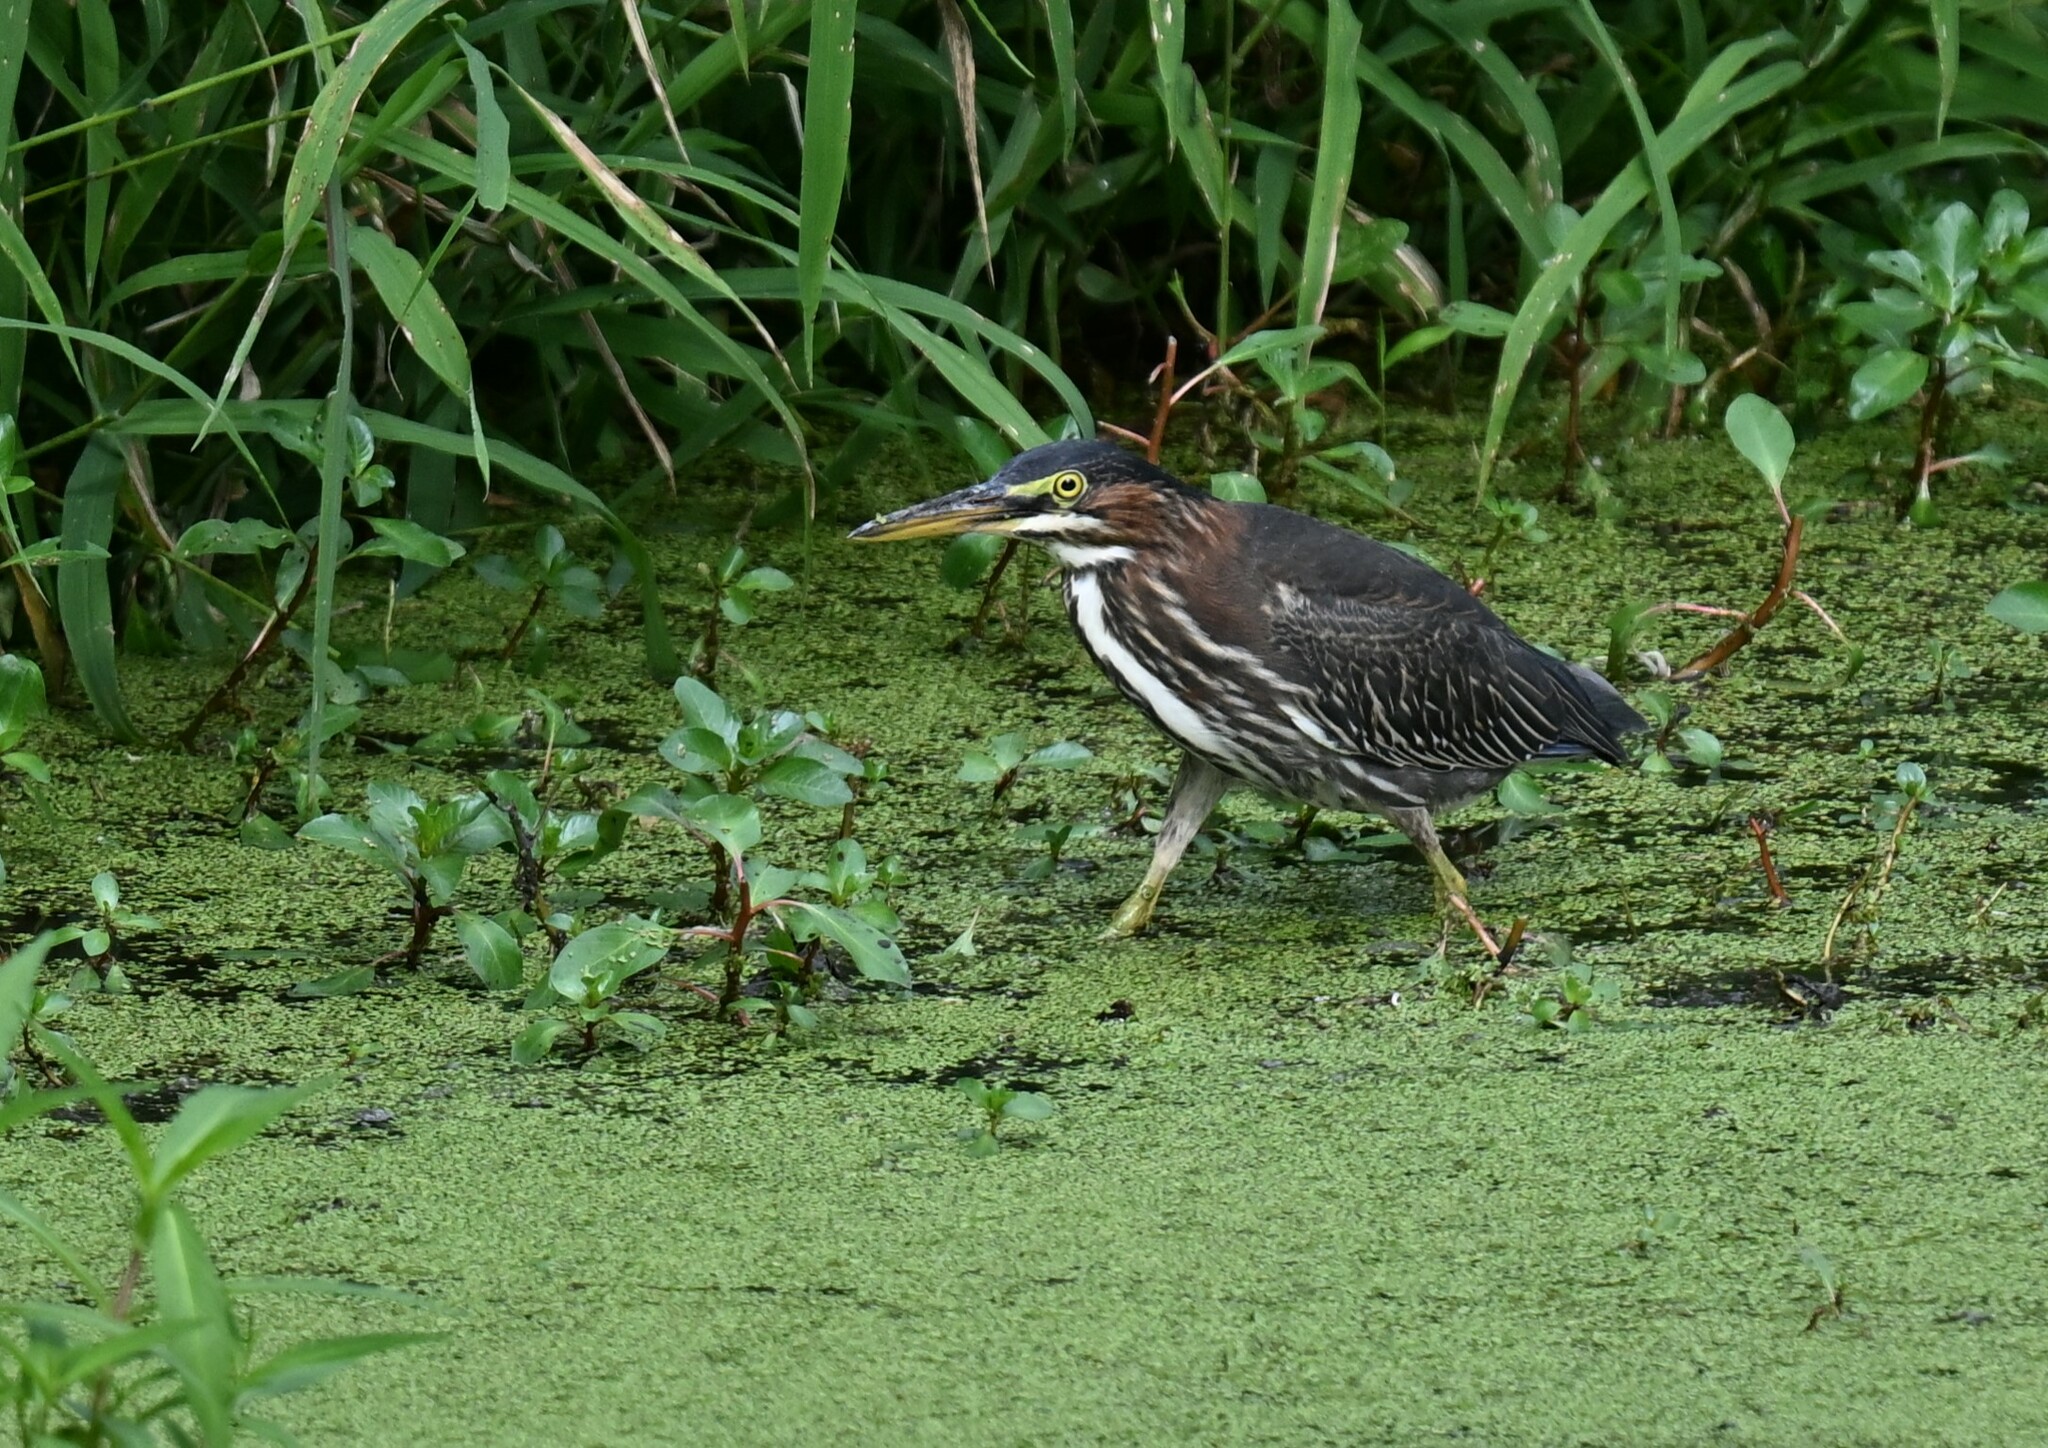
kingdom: Animalia
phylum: Chordata
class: Aves
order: Pelecaniformes
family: Ardeidae
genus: Butorides
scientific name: Butorides virescens
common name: Green heron
